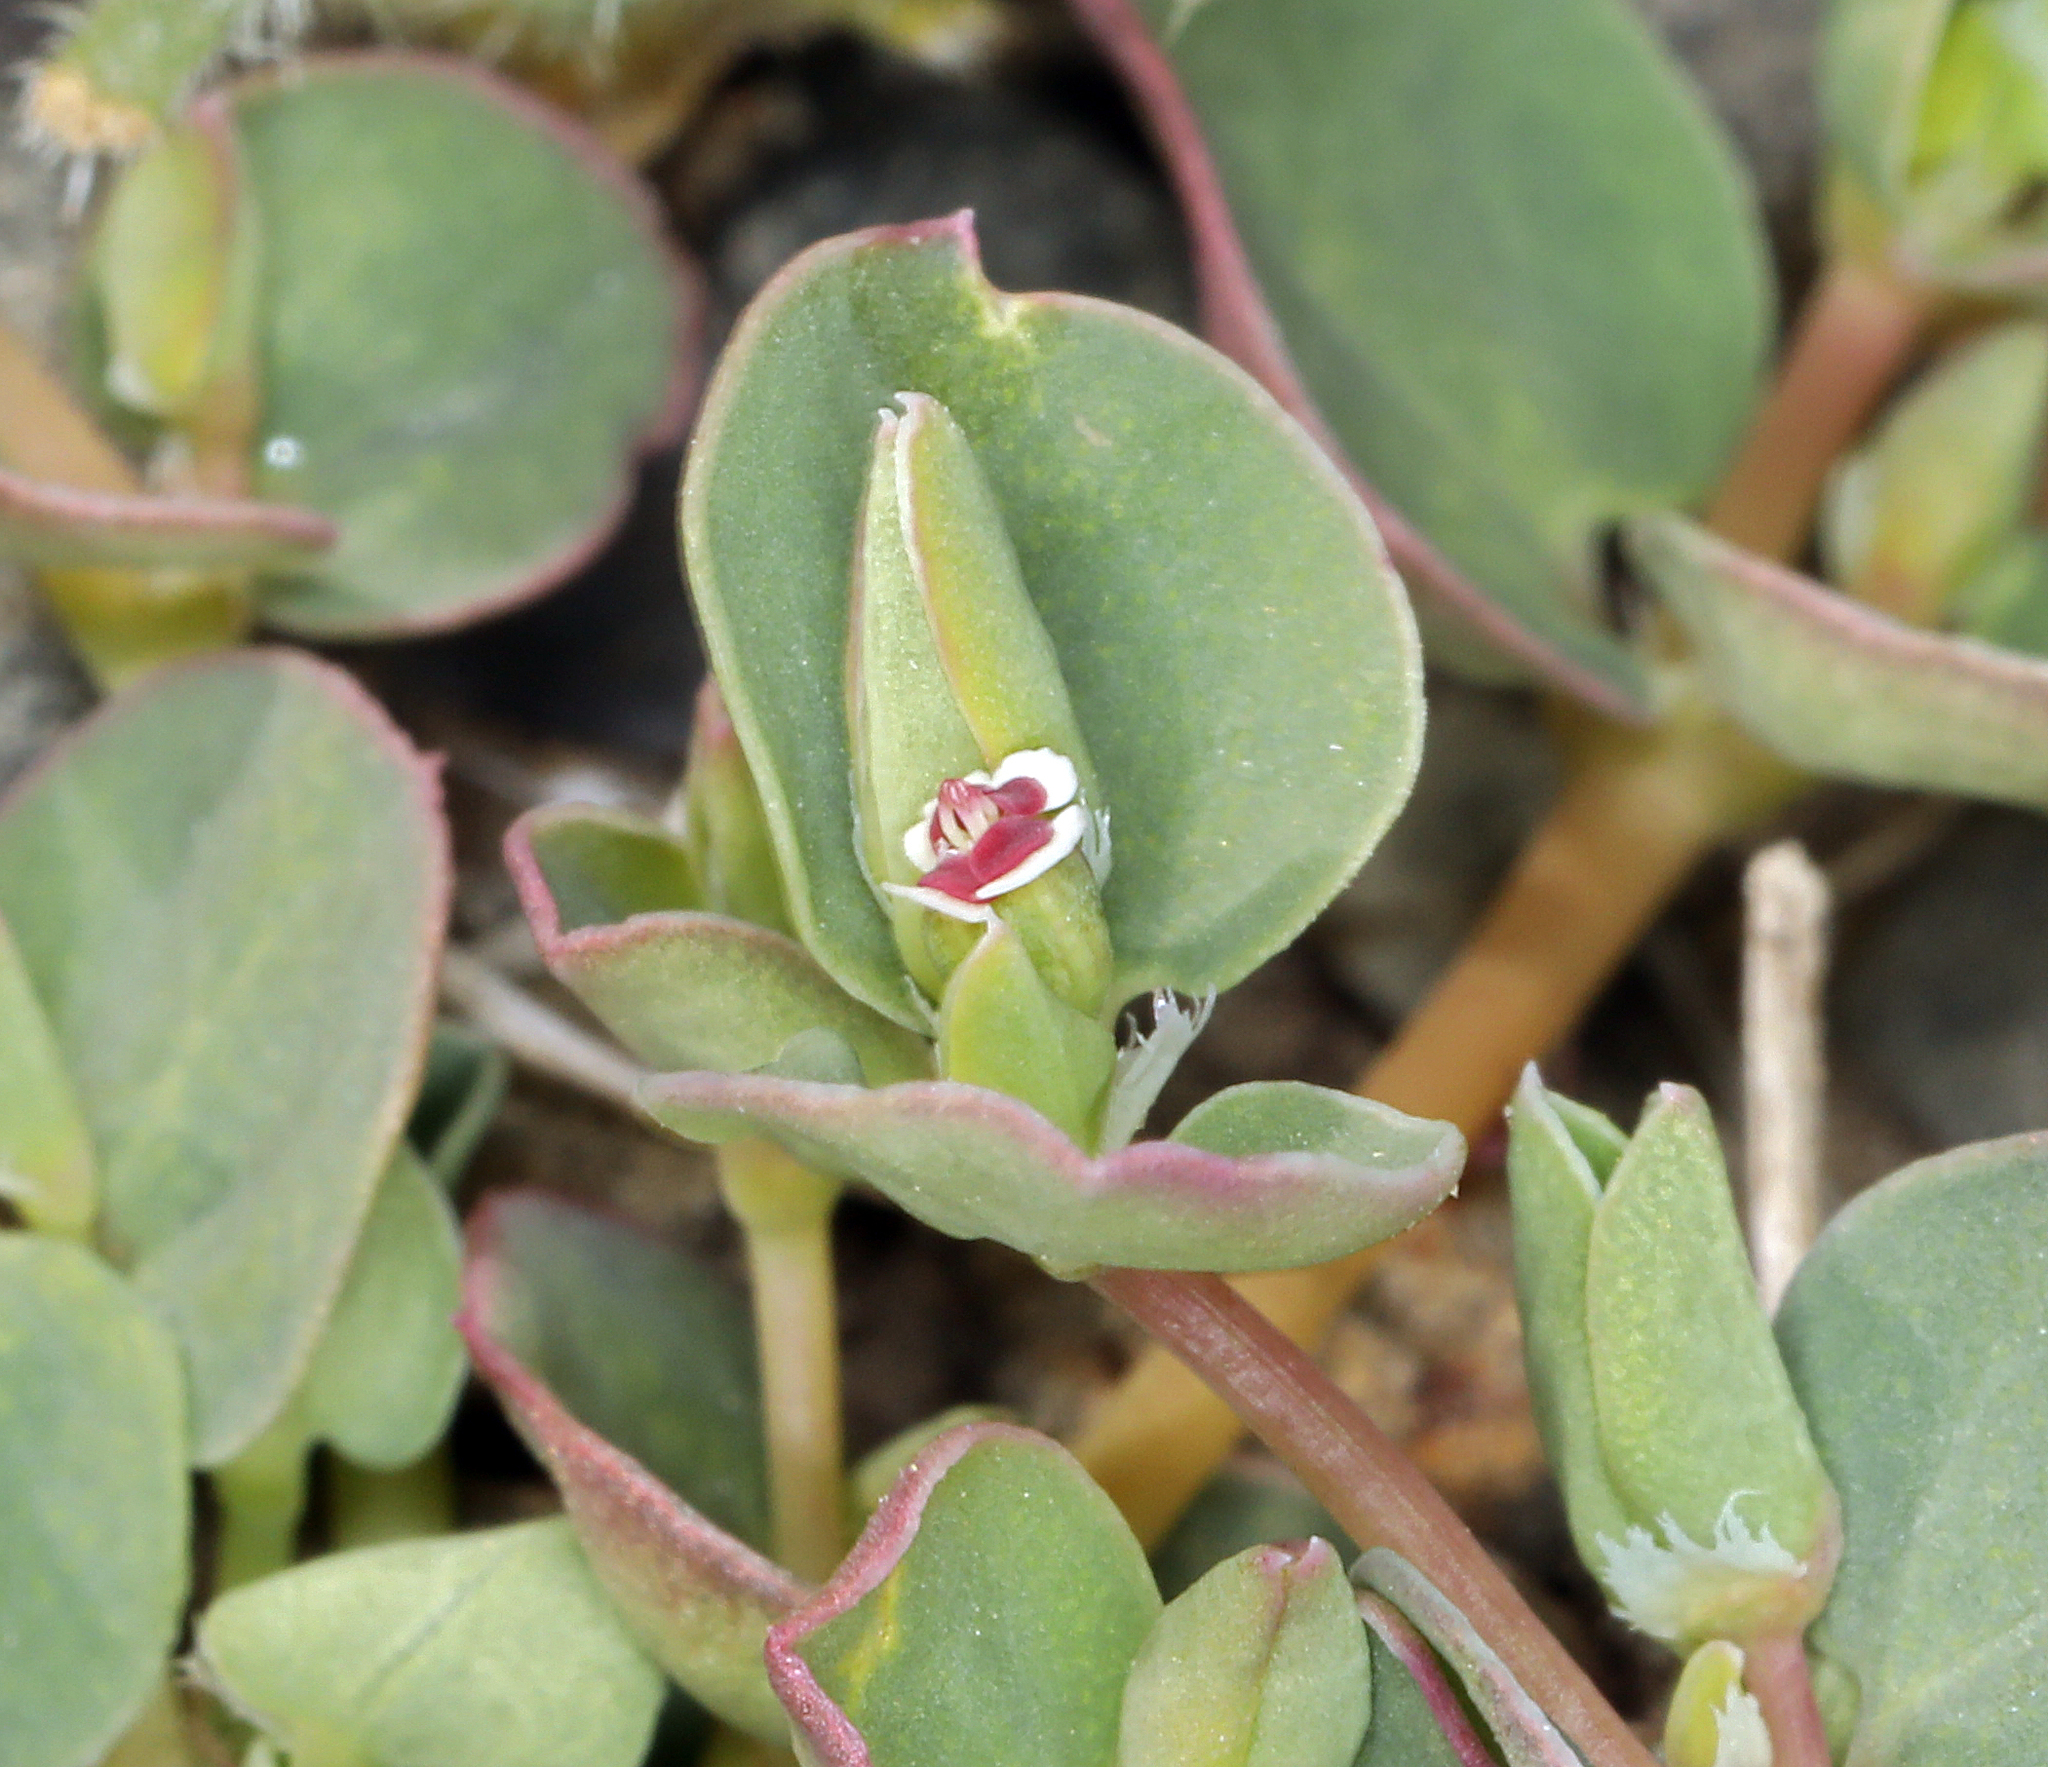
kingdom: Plantae
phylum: Tracheophyta
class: Magnoliopsida
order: Malpighiales
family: Euphorbiaceae
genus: Euphorbia
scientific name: Euphorbia albomarginata
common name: Whitemargin sandmat
